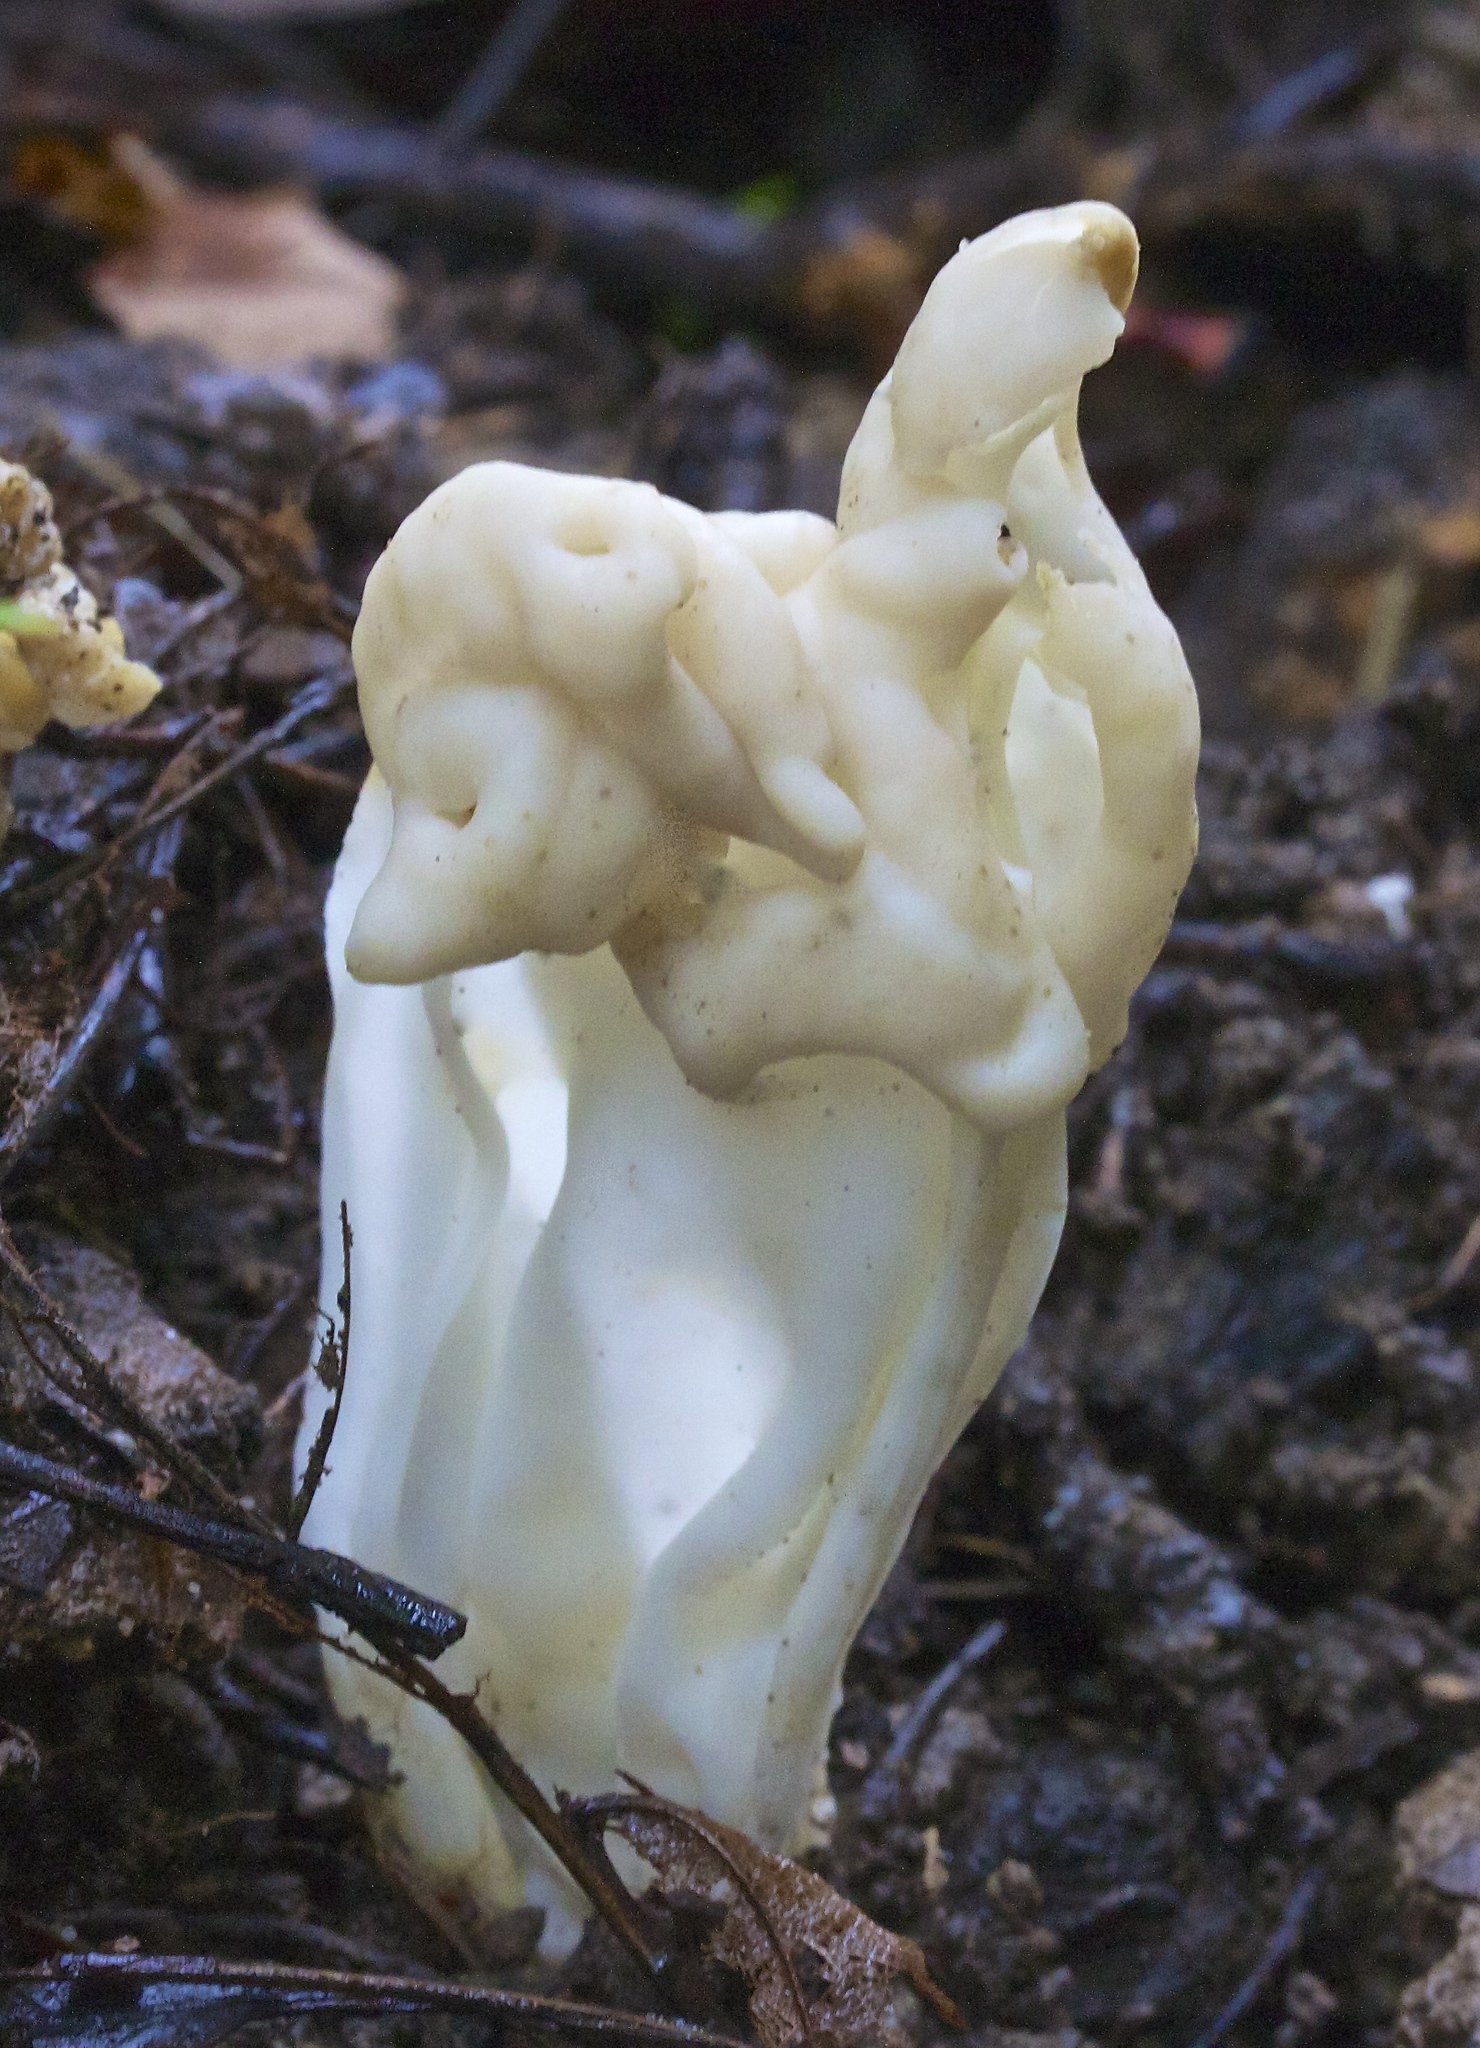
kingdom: Fungi
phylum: Ascomycota
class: Pezizomycetes
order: Pezizales
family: Helvellaceae
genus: Helvella
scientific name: Helvella crispa
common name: White saddle
